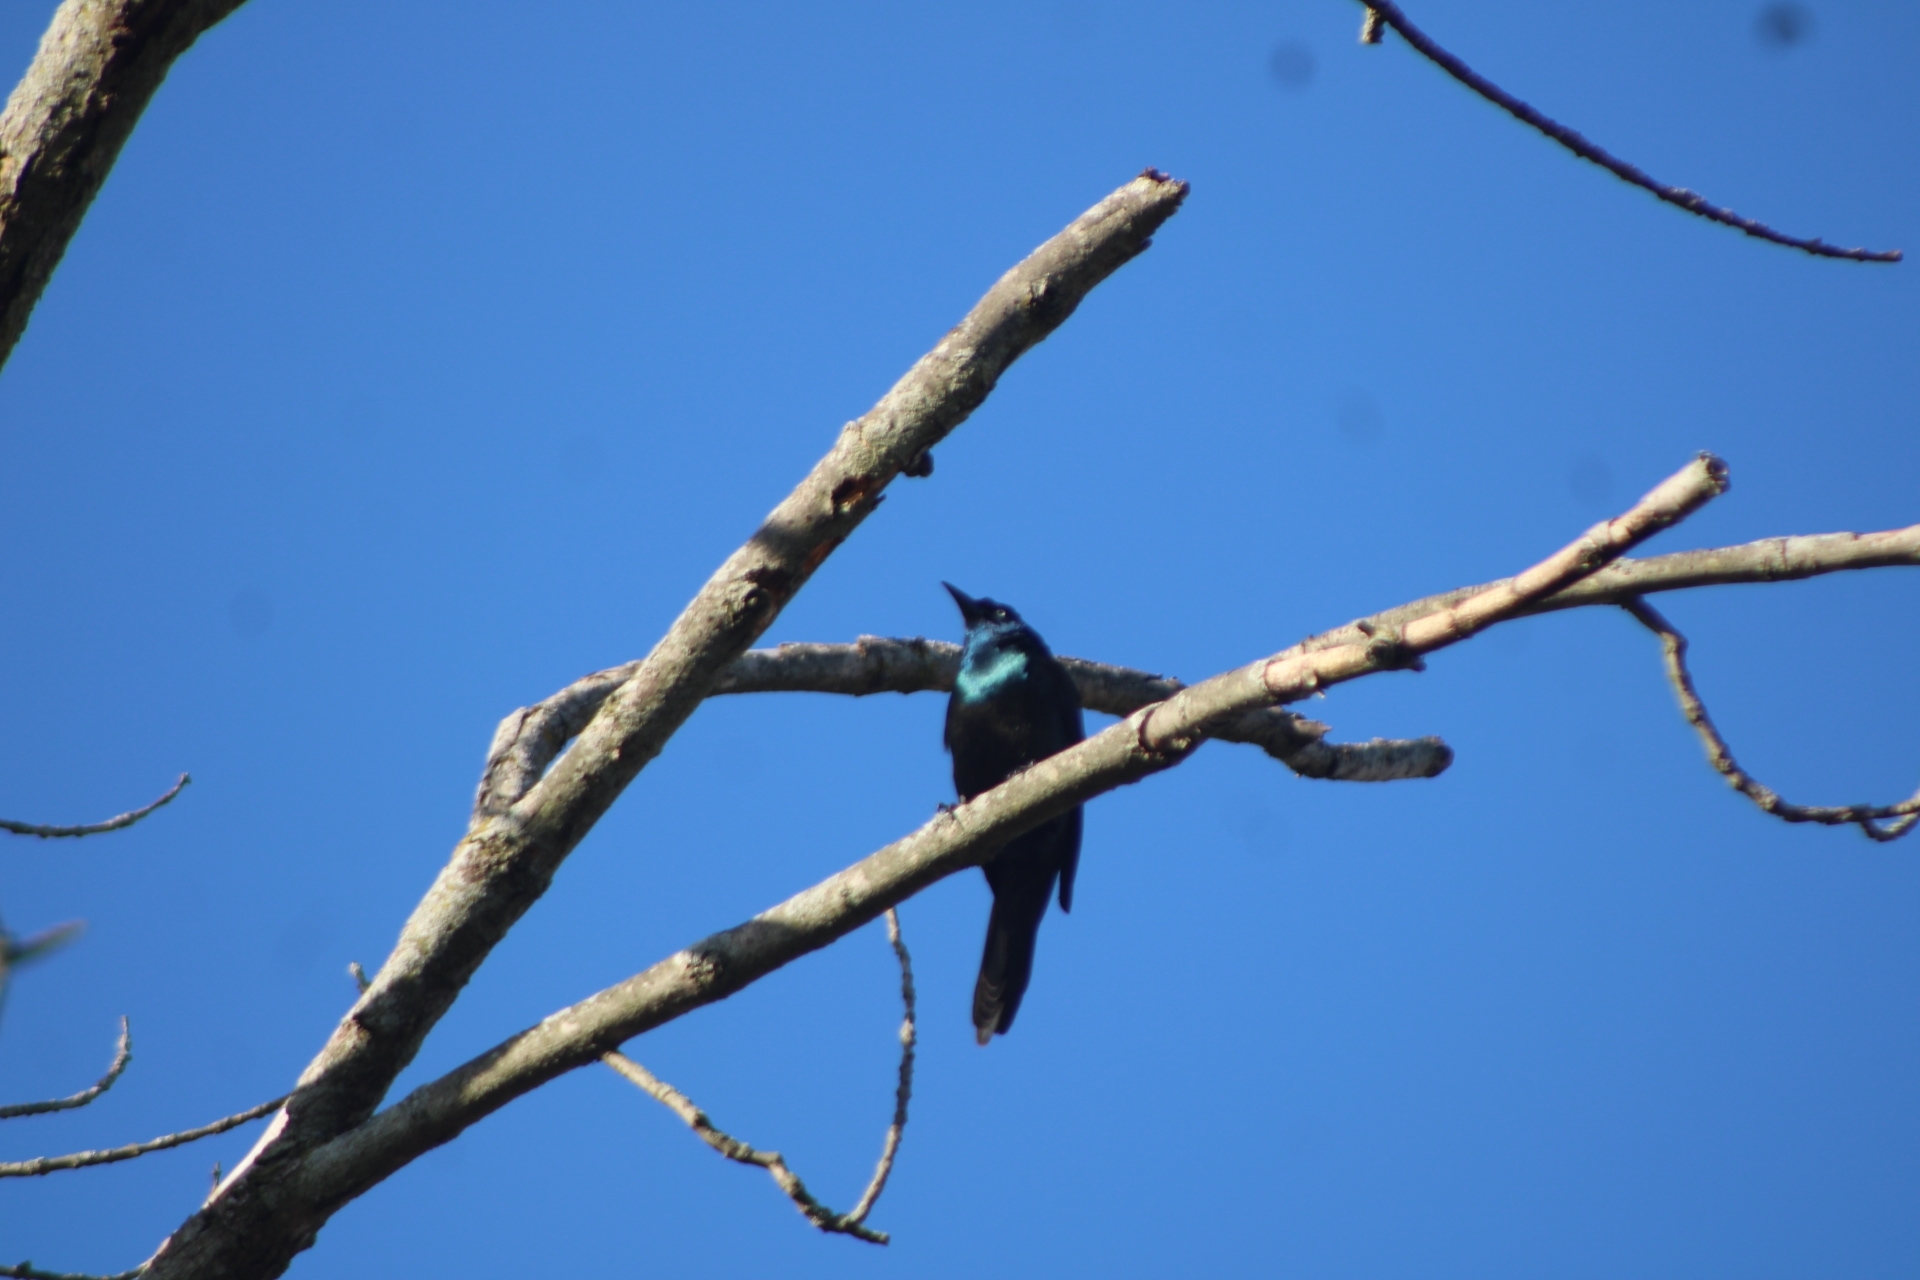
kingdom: Animalia
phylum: Chordata
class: Aves
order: Passeriformes
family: Icteridae
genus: Quiscalus
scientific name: Quiscalus quiscula
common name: Common grackle
